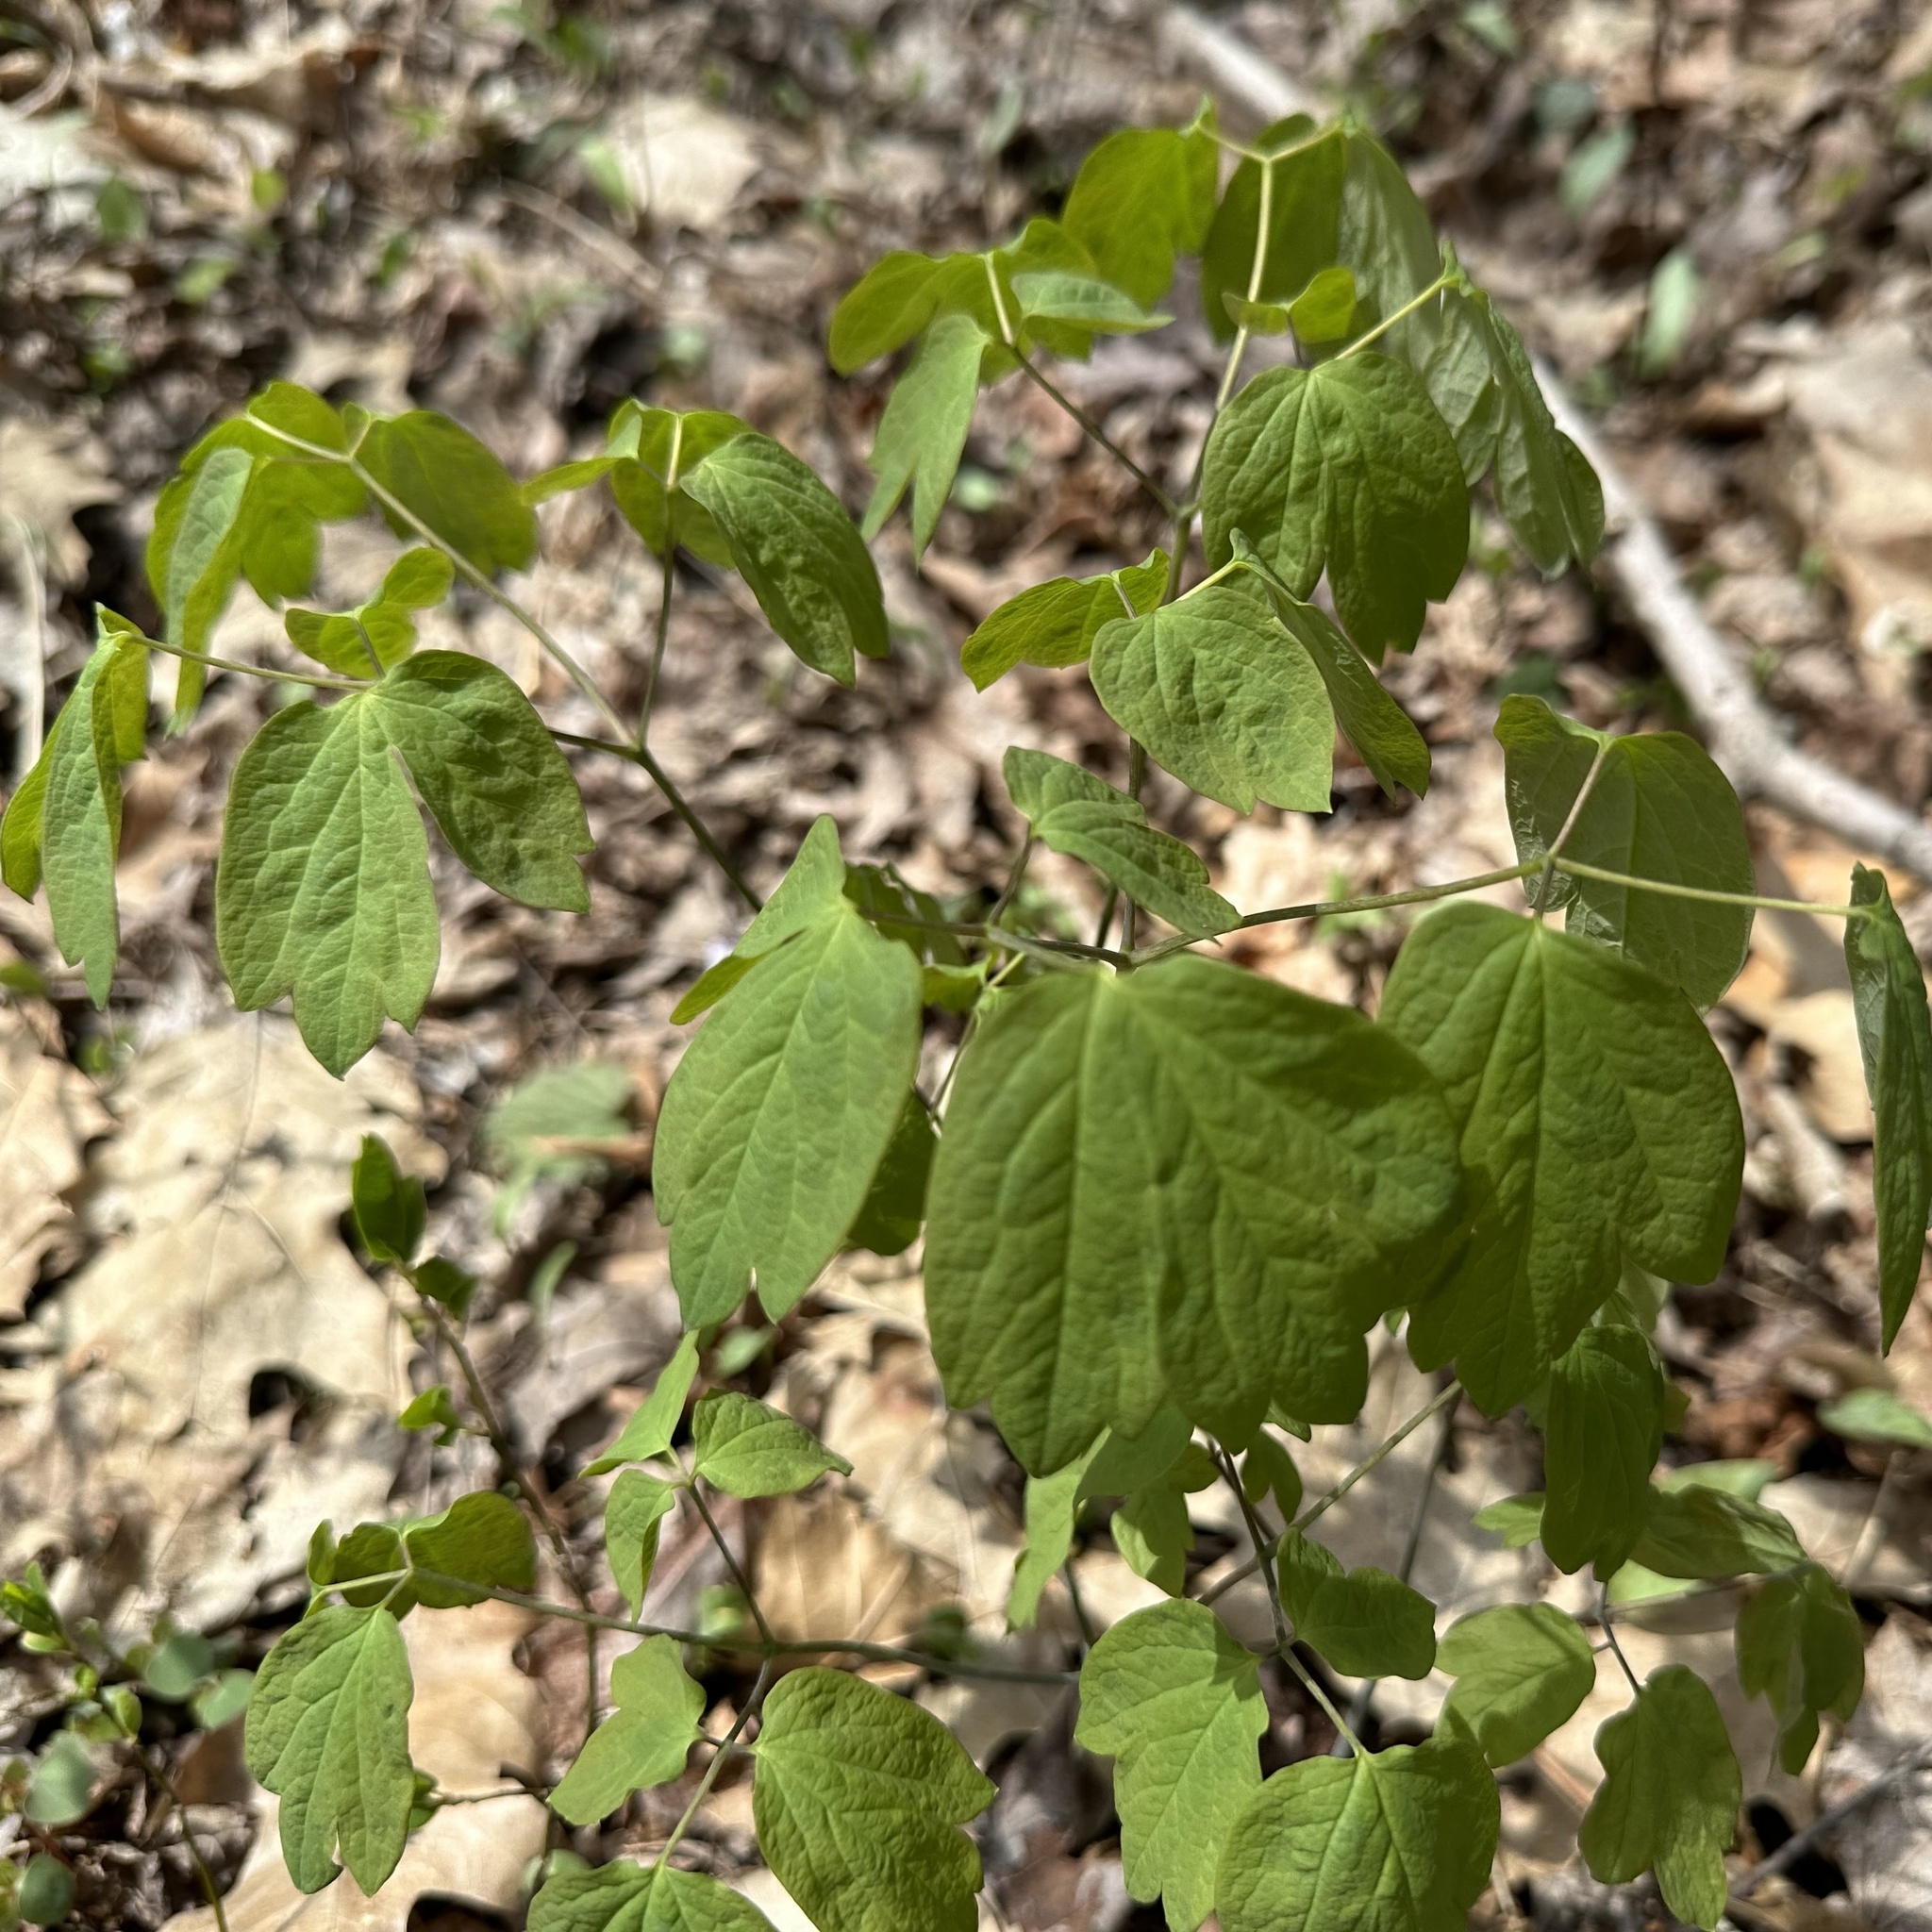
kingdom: Plantae
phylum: Tracheophyta
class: Magnoliopsida
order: Ranunculales
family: Berberidaceae
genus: Caulophyllum
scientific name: Caulophyllum thalictroides
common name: Blue cohosh
